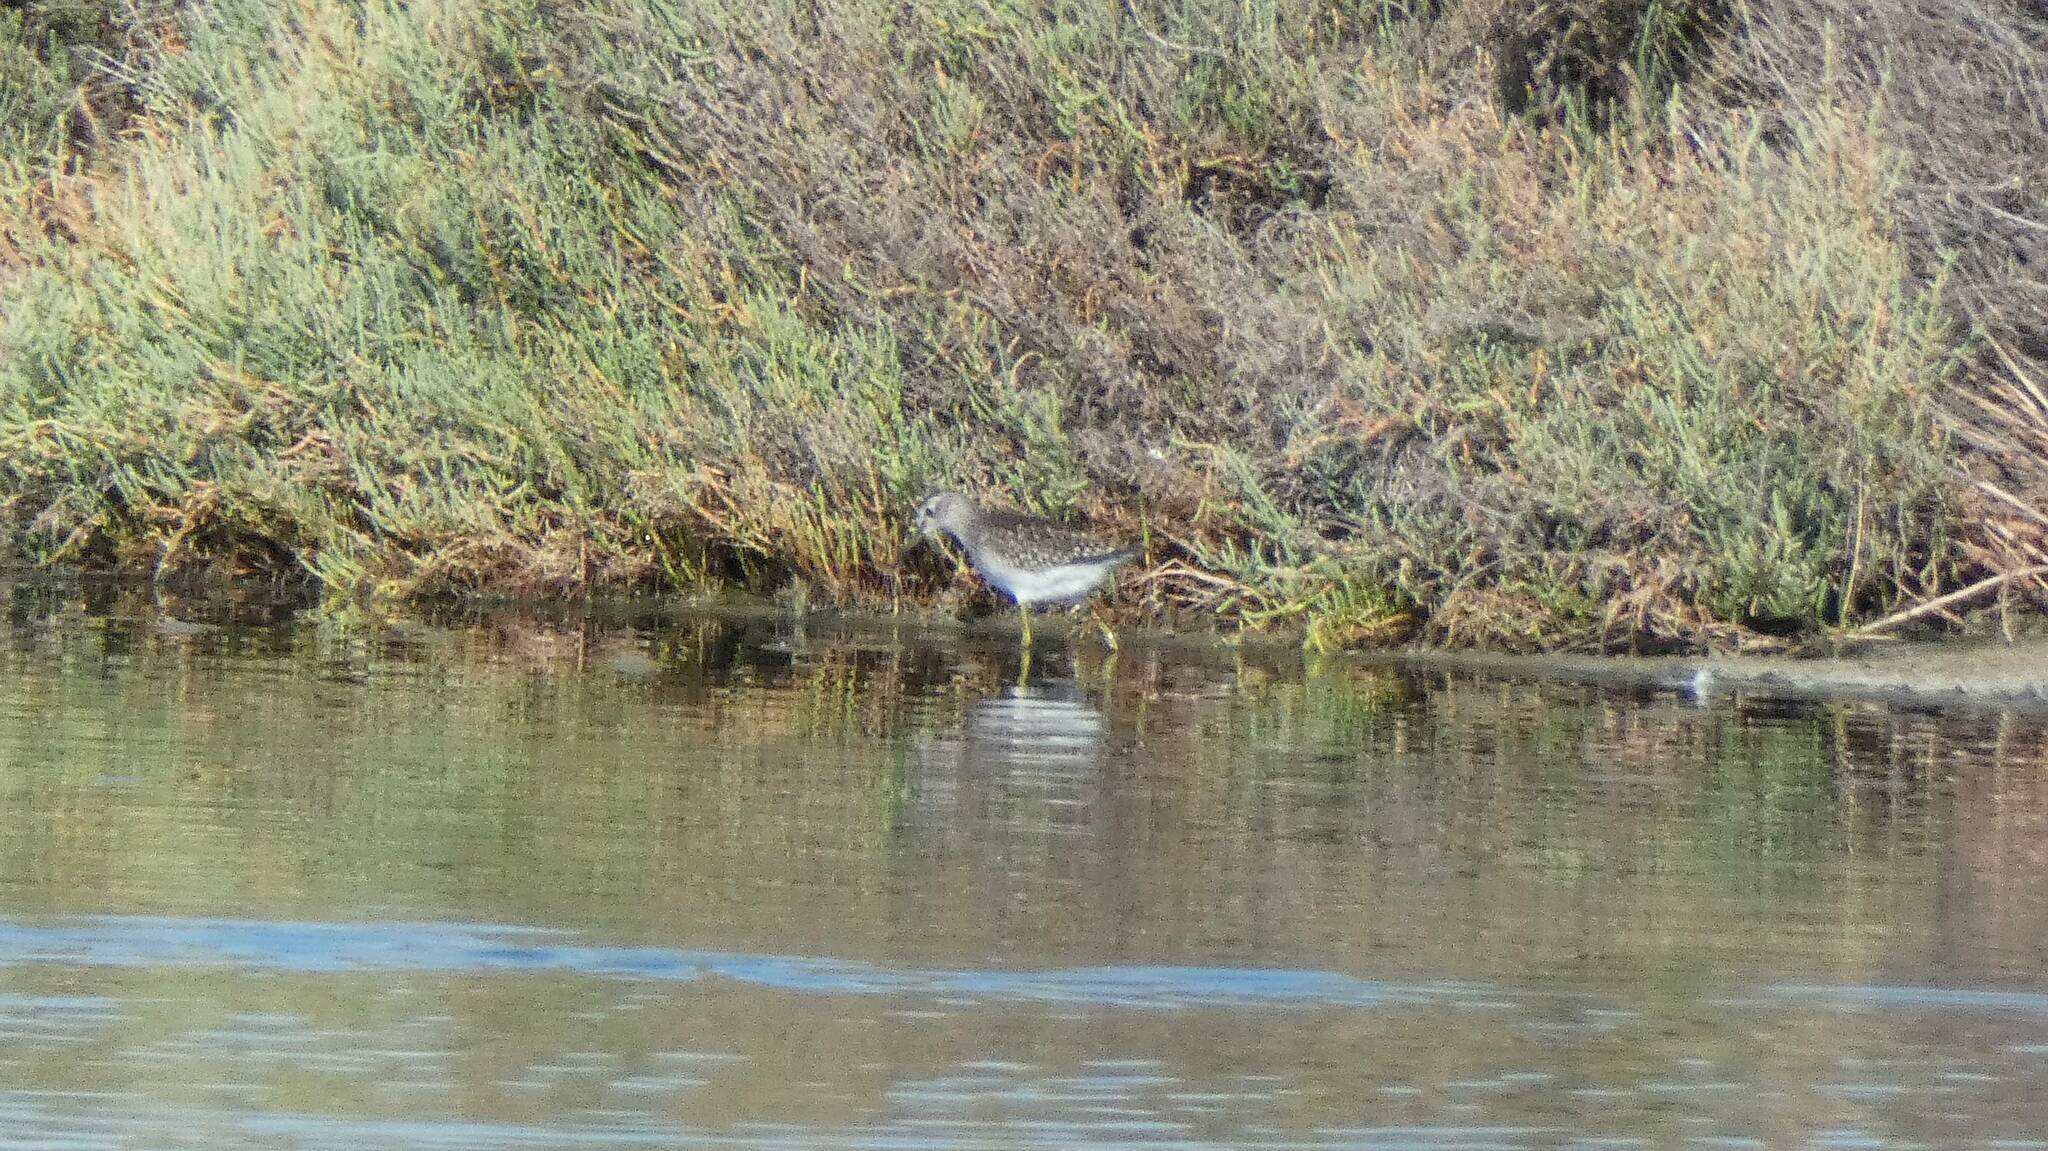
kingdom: Animalia
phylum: Chordata
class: Aves
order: Charadriiformes
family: Scolopacidae
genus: Tringa
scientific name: Tringa glareola
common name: Wood sandpiper
